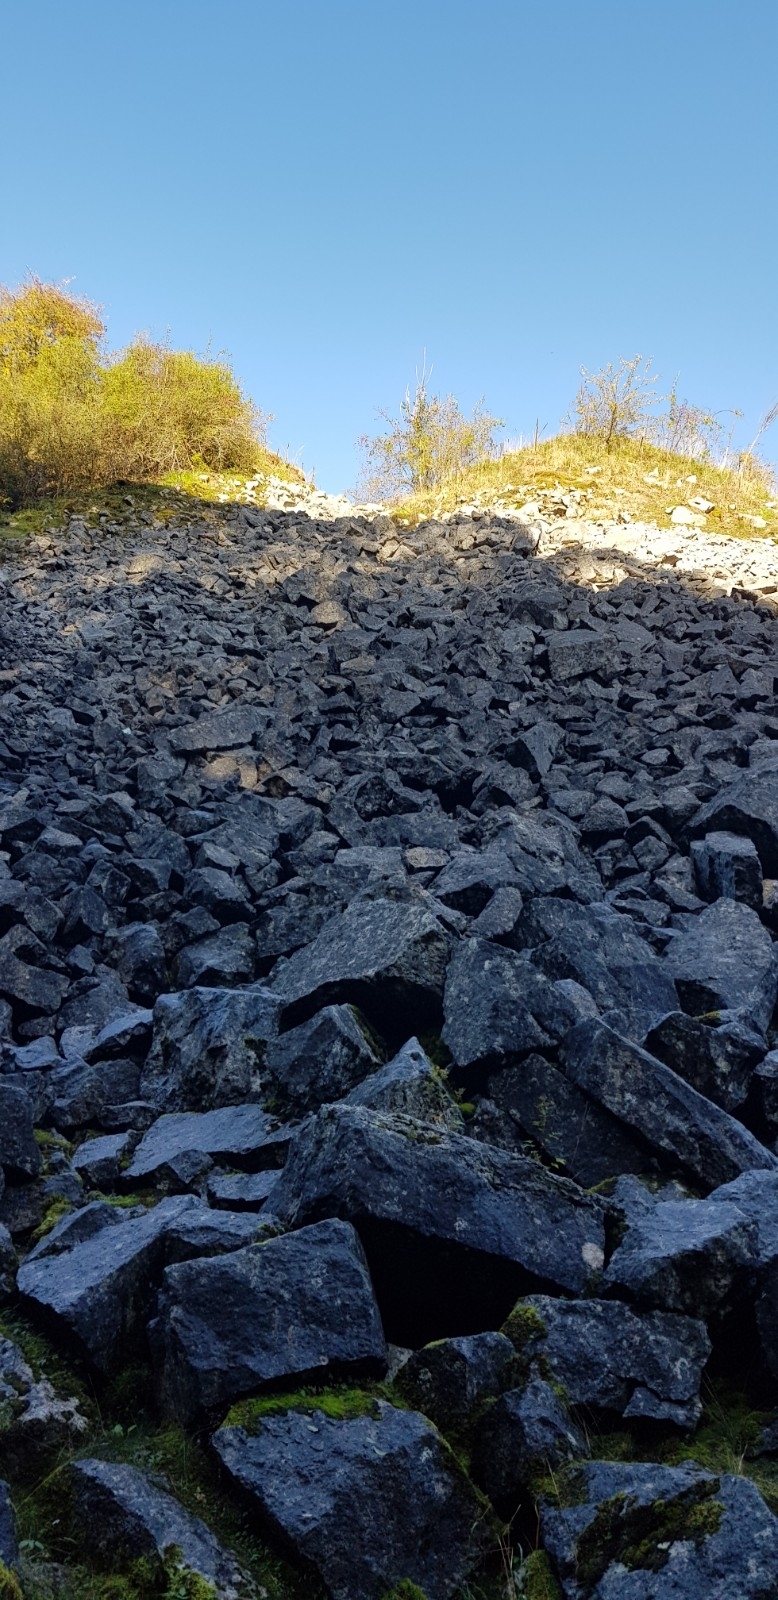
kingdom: Plantae
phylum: Bryophyta
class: Bryopsida
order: Scouleriales
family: Flexitrichaceae
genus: Flexitrichum
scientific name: Flexitrichum flexicaule
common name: Bendy ditrichum
